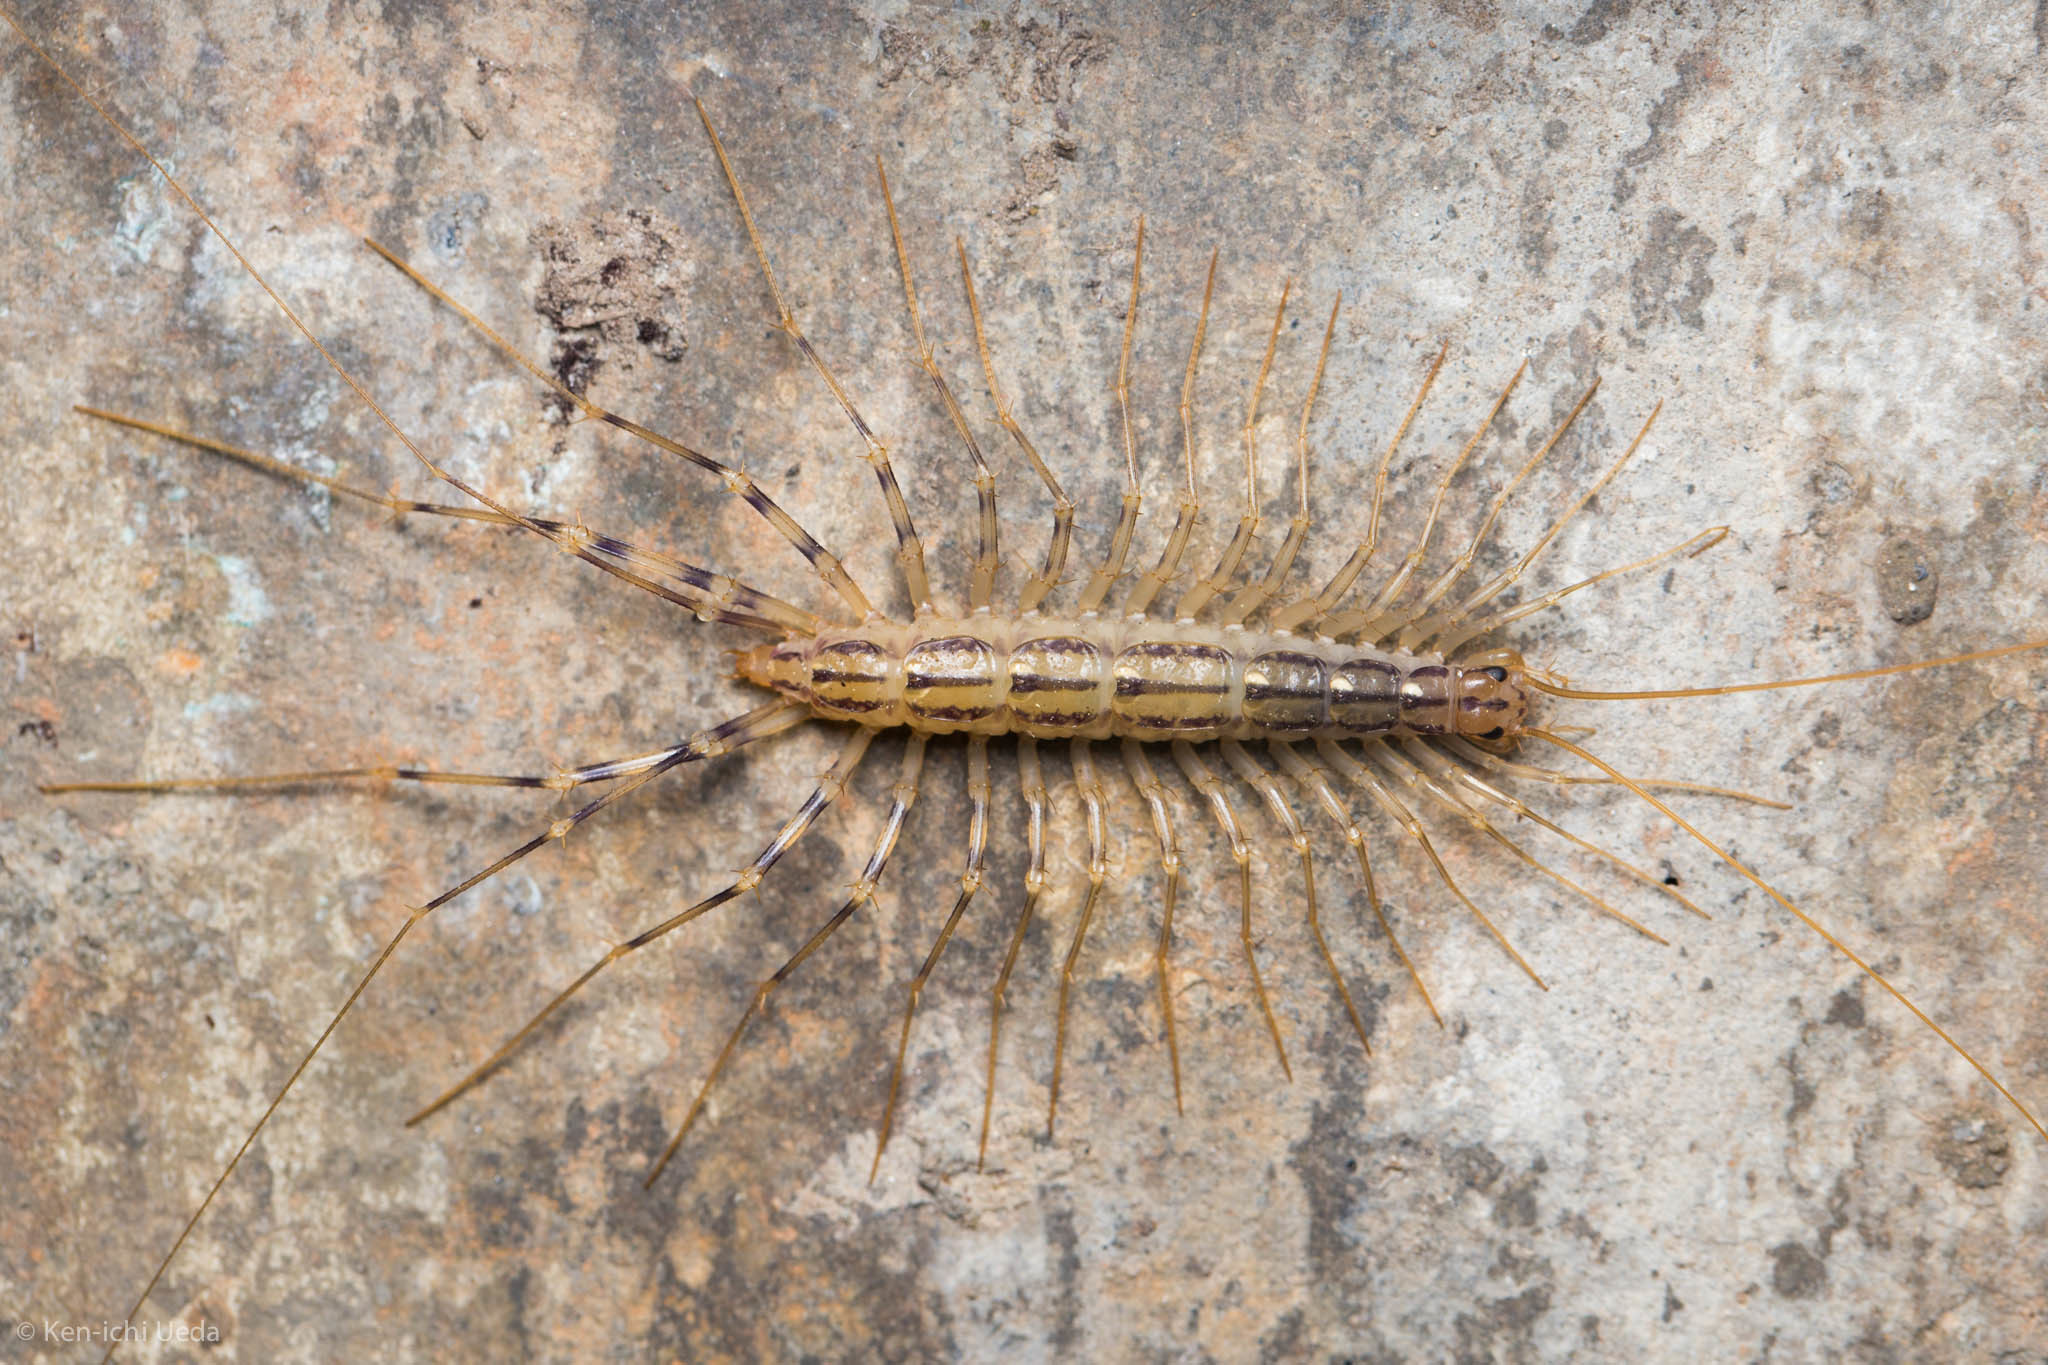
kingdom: Animalia
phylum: Arthropoda
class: Chilopoda
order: Scutigeromorpha
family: Scutigeridae
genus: Scutigera
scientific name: Scutigera coleoptrata
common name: House centipede
